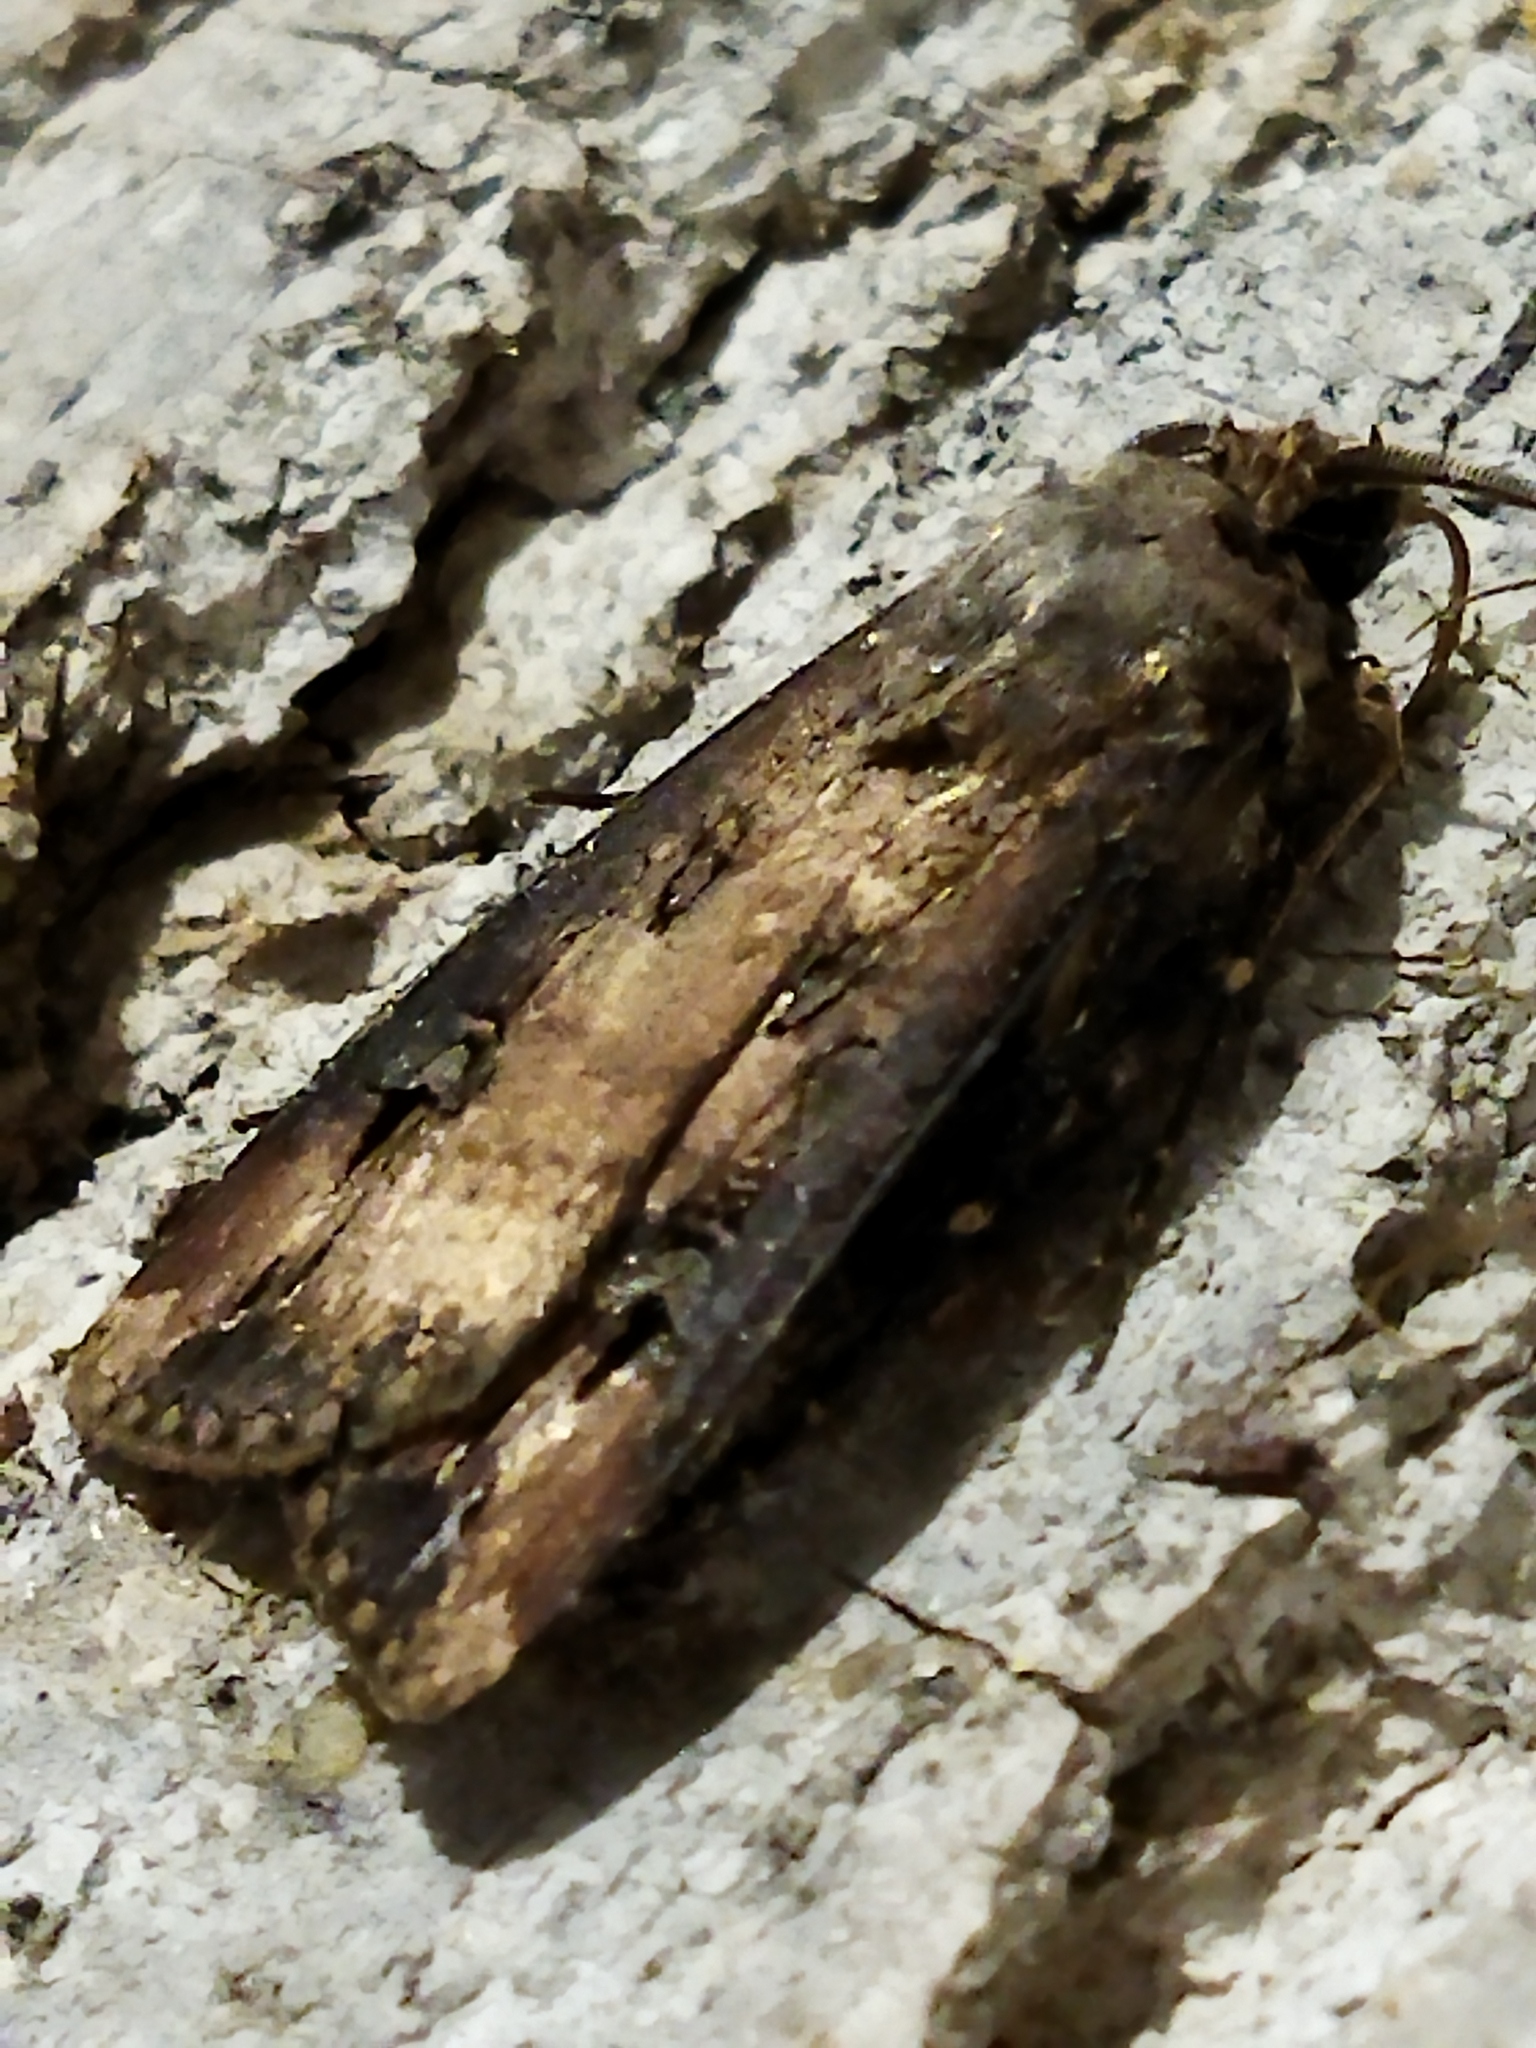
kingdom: Animalia
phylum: Arthropoda
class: Insecta
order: Lepidoptera
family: Noctuidae
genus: Agrotis
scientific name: Agrotis ipsilon
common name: Dark sword-grass
